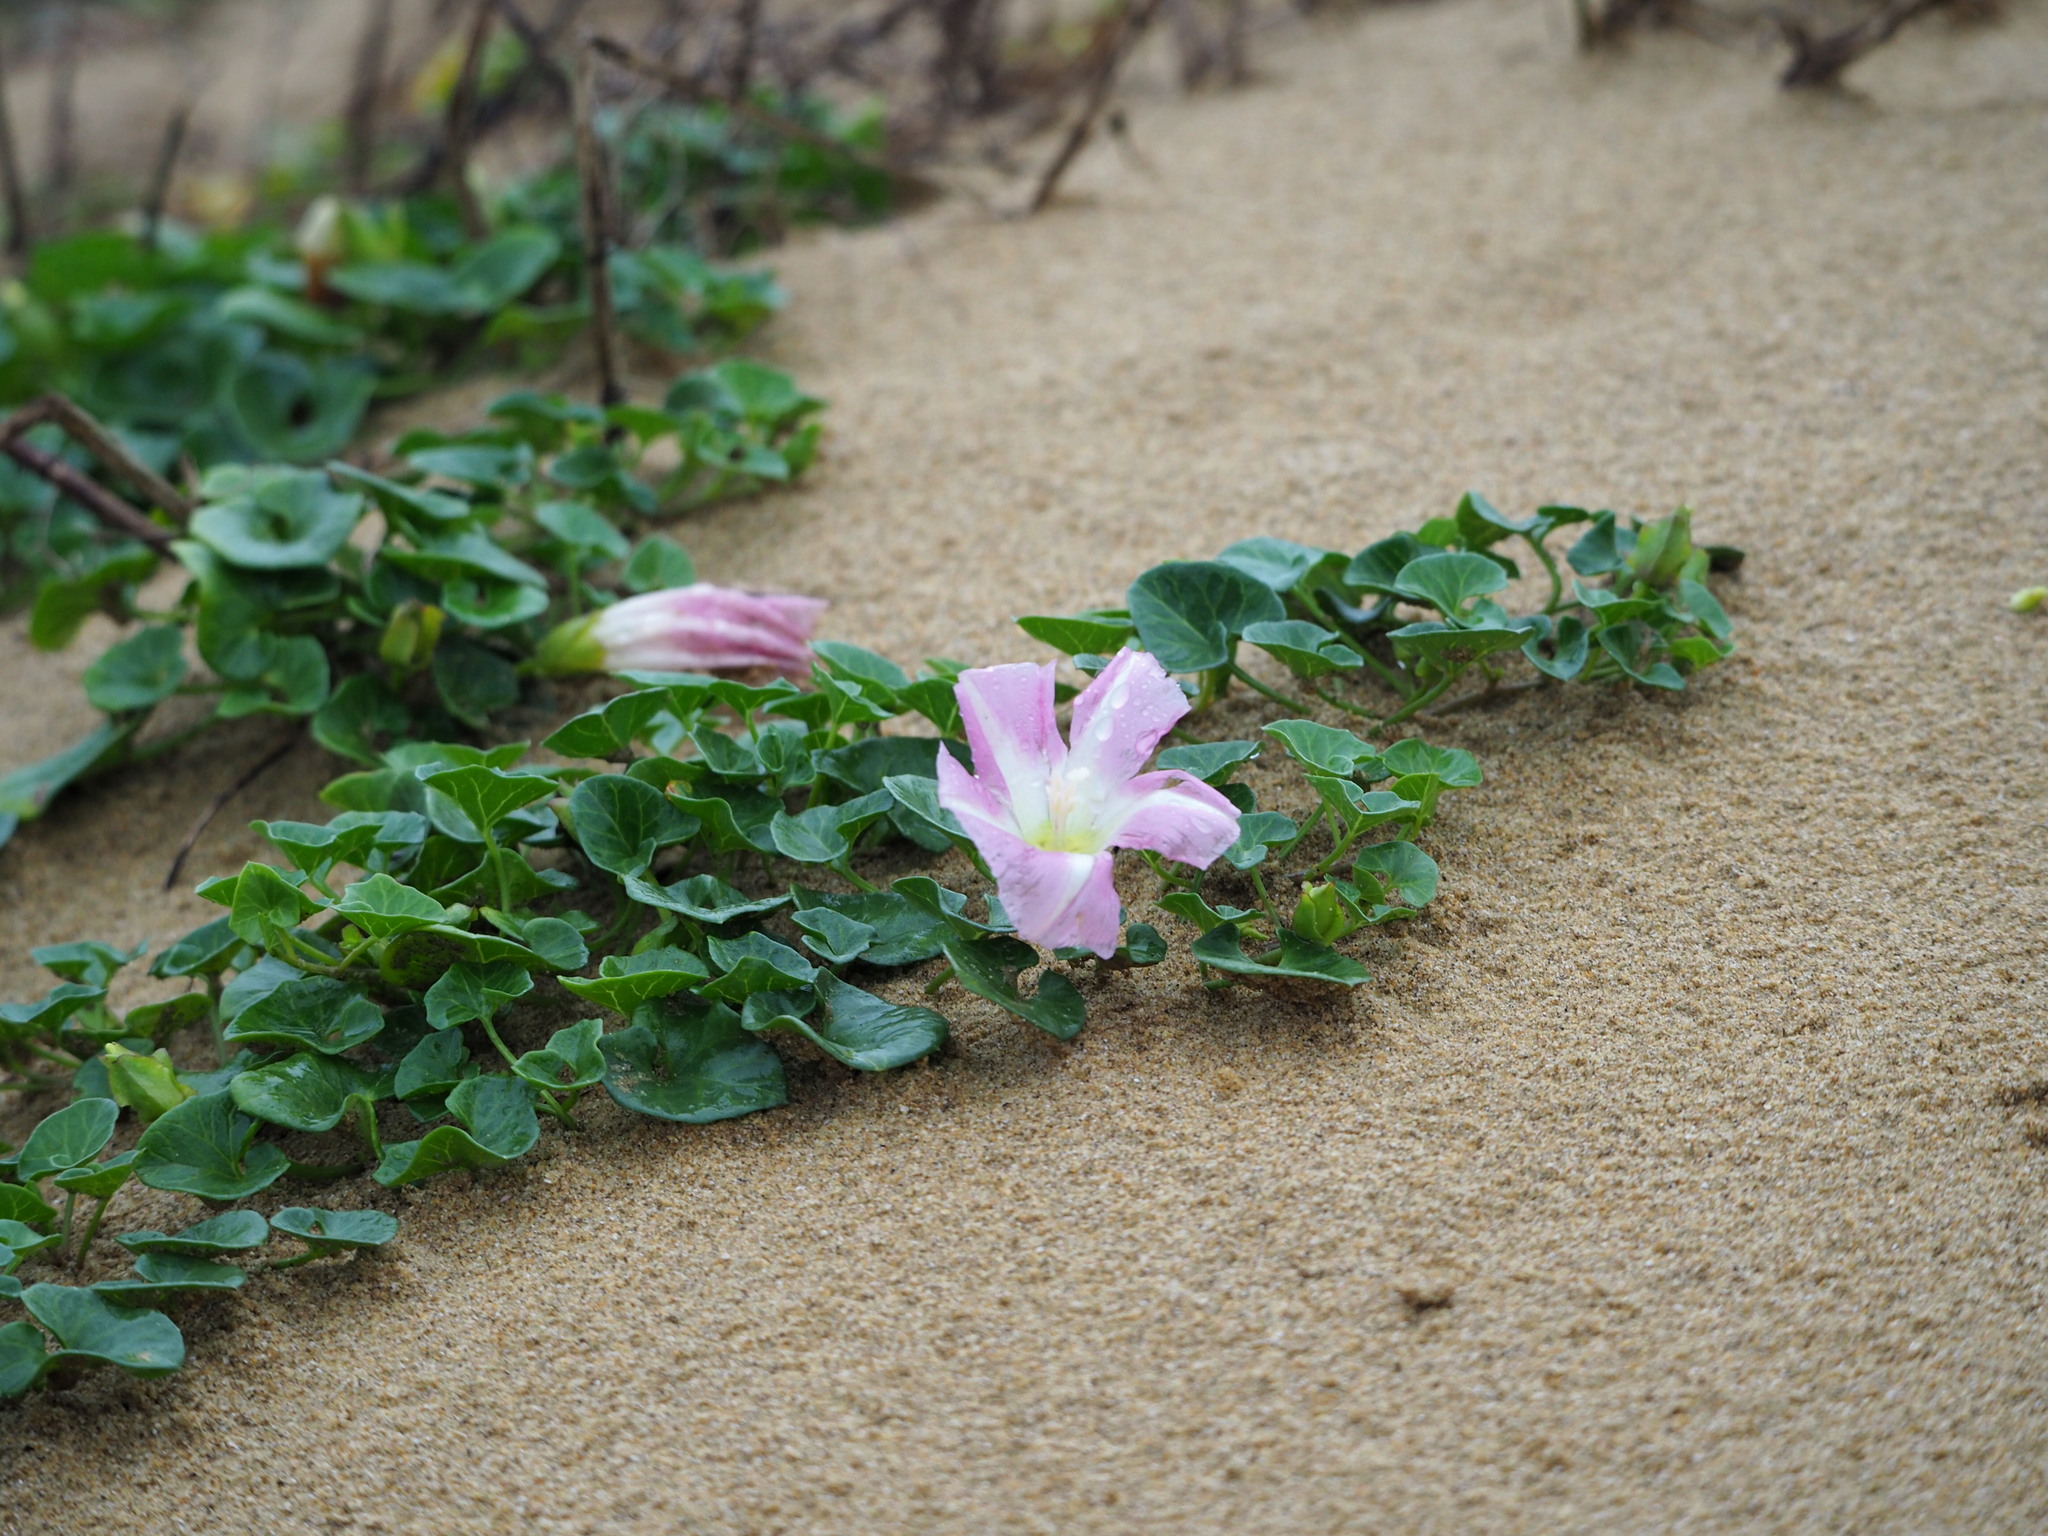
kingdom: Plantae
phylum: Tracheophyta
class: Magnoliopsida
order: Solanales
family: Convolvulaceae
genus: Calystegia
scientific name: Calystegia soldanella
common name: Sea bindweed
